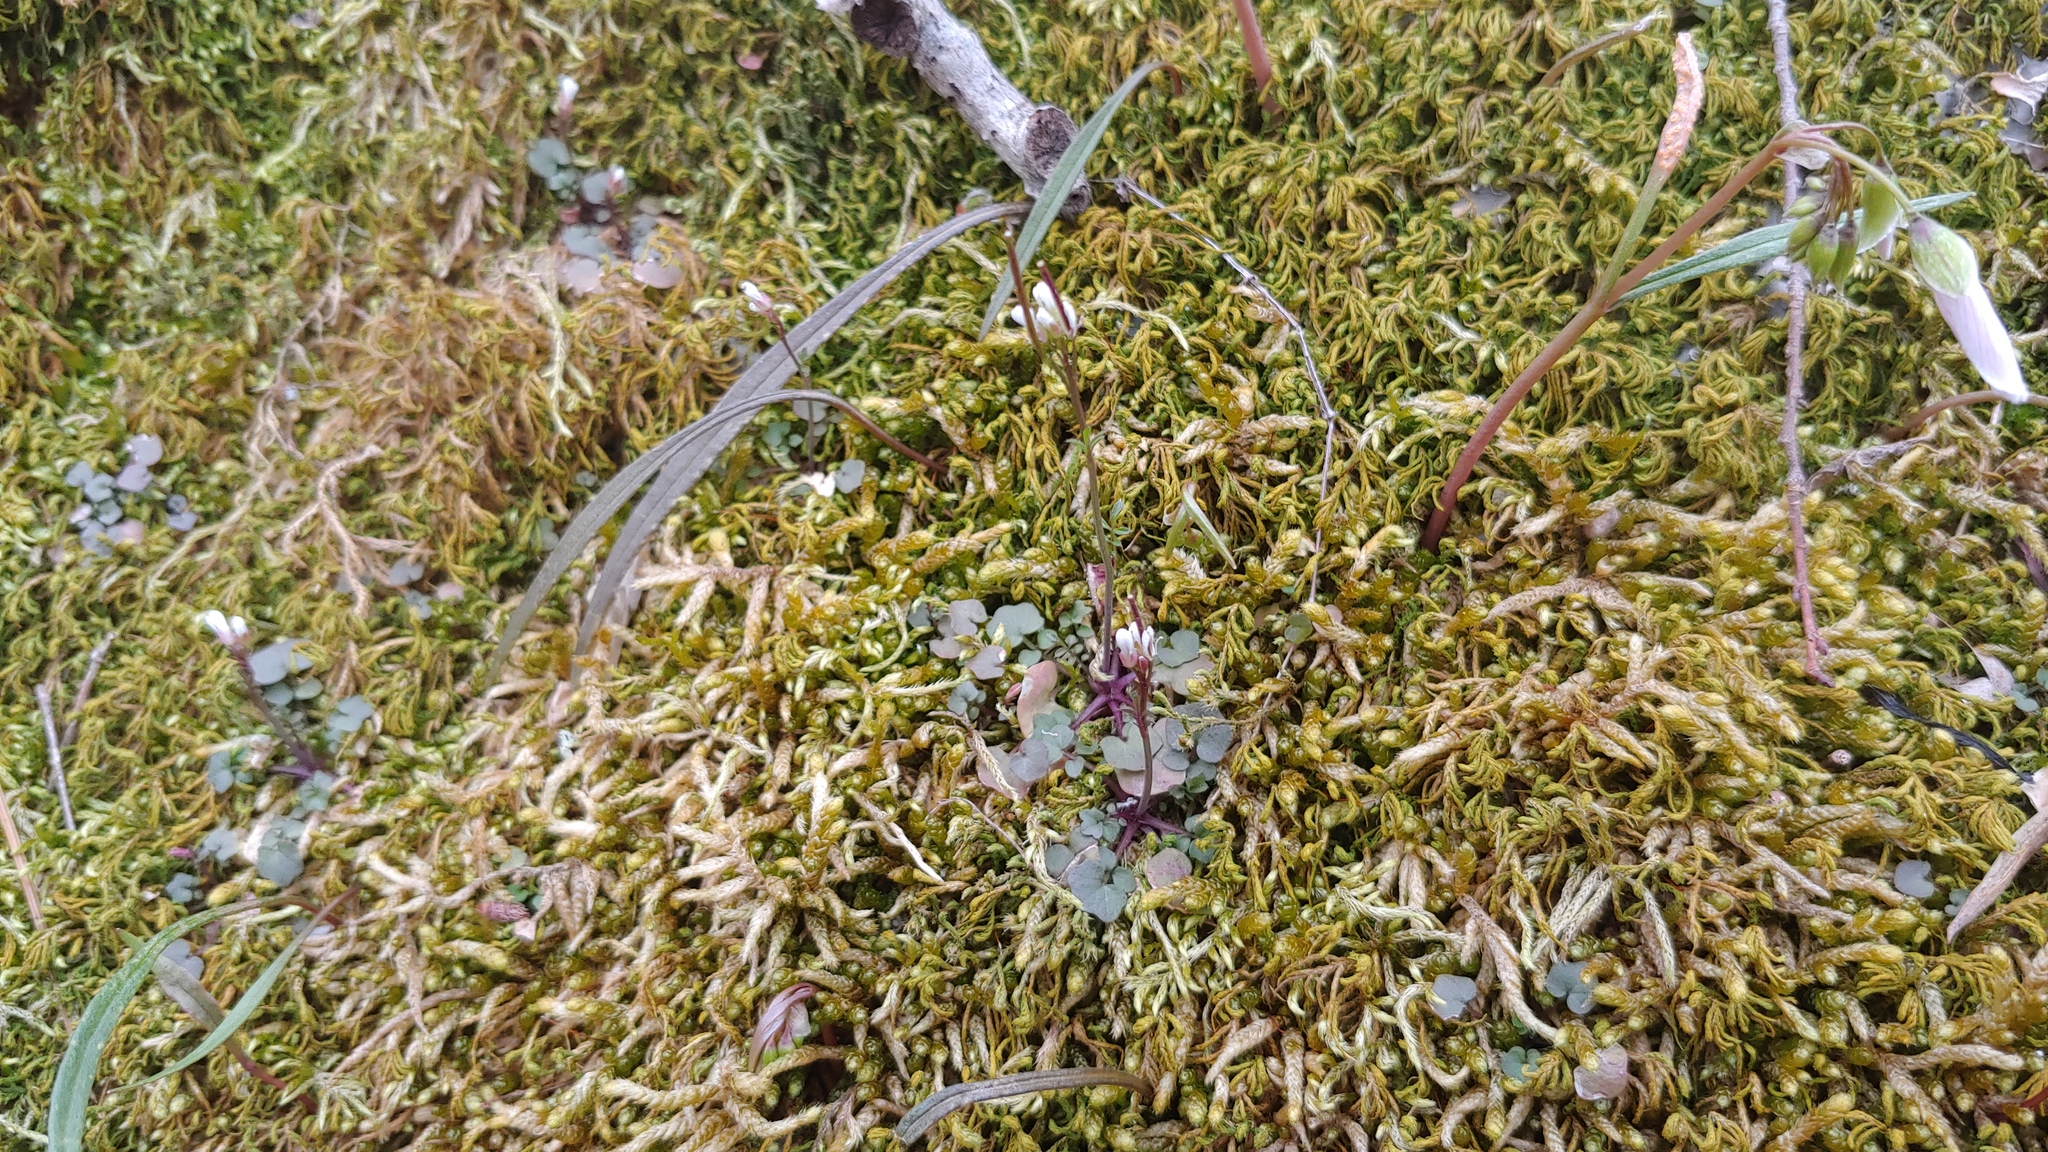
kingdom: Plantae
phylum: Tracheophyta
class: Magnoliopsida
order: Brassicales
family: Brassicaceae
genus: Cardamine
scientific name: Cardamine hirsuta
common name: Hairy bittercress
